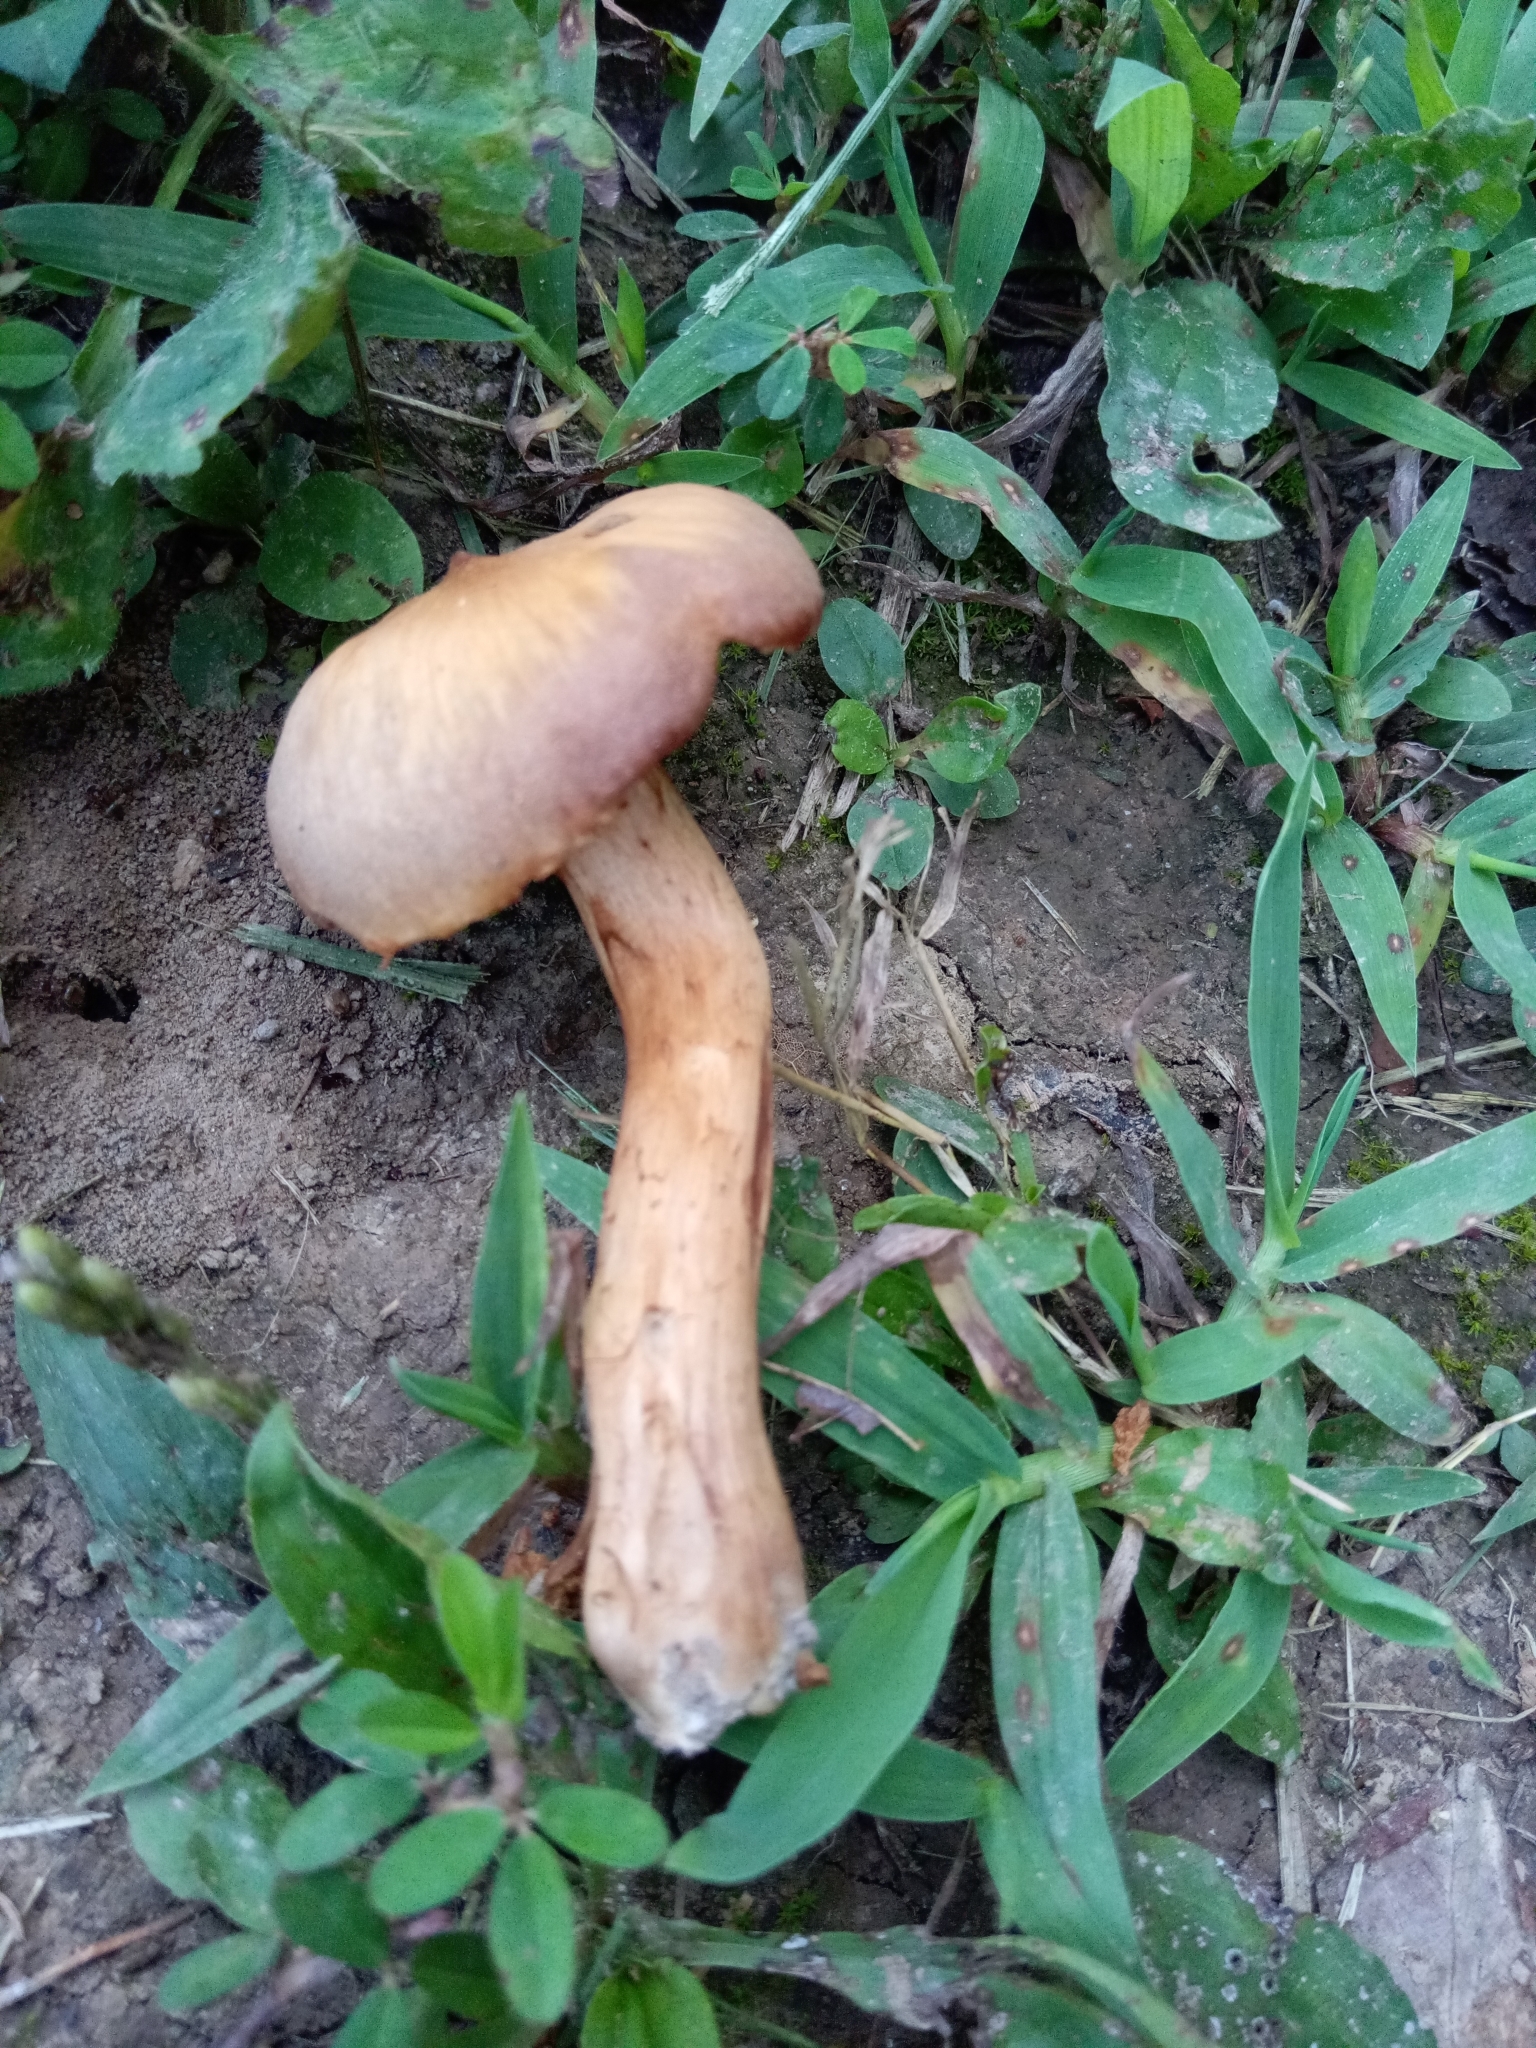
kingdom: Fungi
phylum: Basidiomycota
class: Agaricomycetes
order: Agaricales
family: Cortinariaceae
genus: Cortinarius
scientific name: Cortinarius
